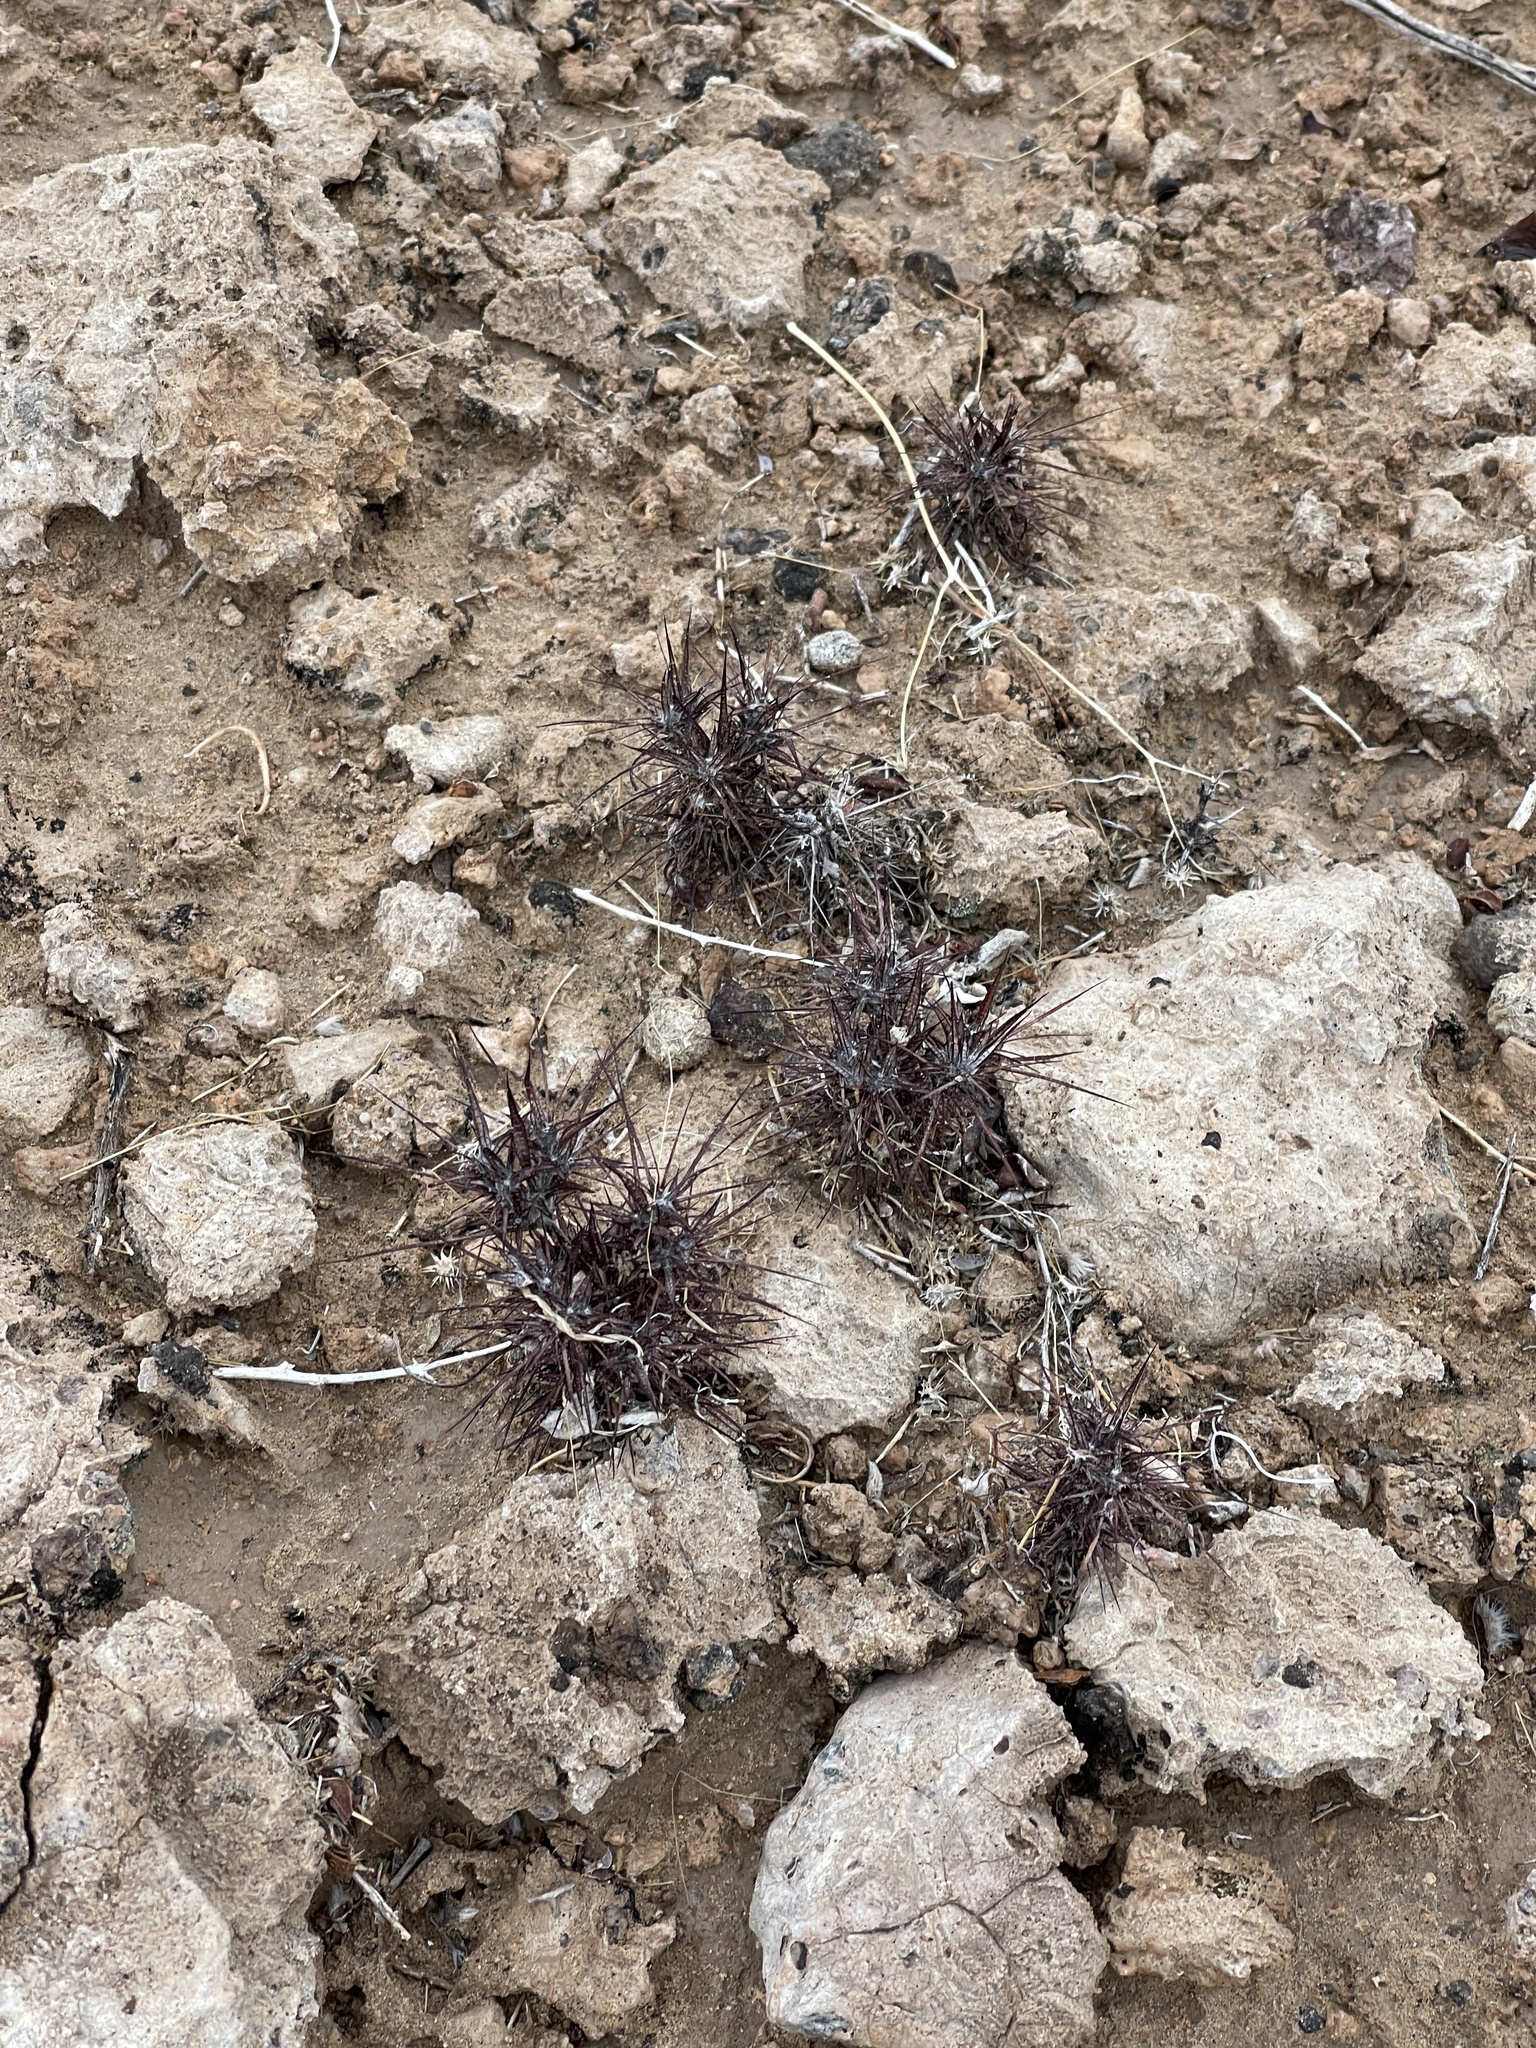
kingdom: Plantae
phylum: Tracheophyta
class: Magnoliopsida
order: Caryophyllales
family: Polygonaceae
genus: Chorizanthe
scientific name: Chorizanthe rigida
